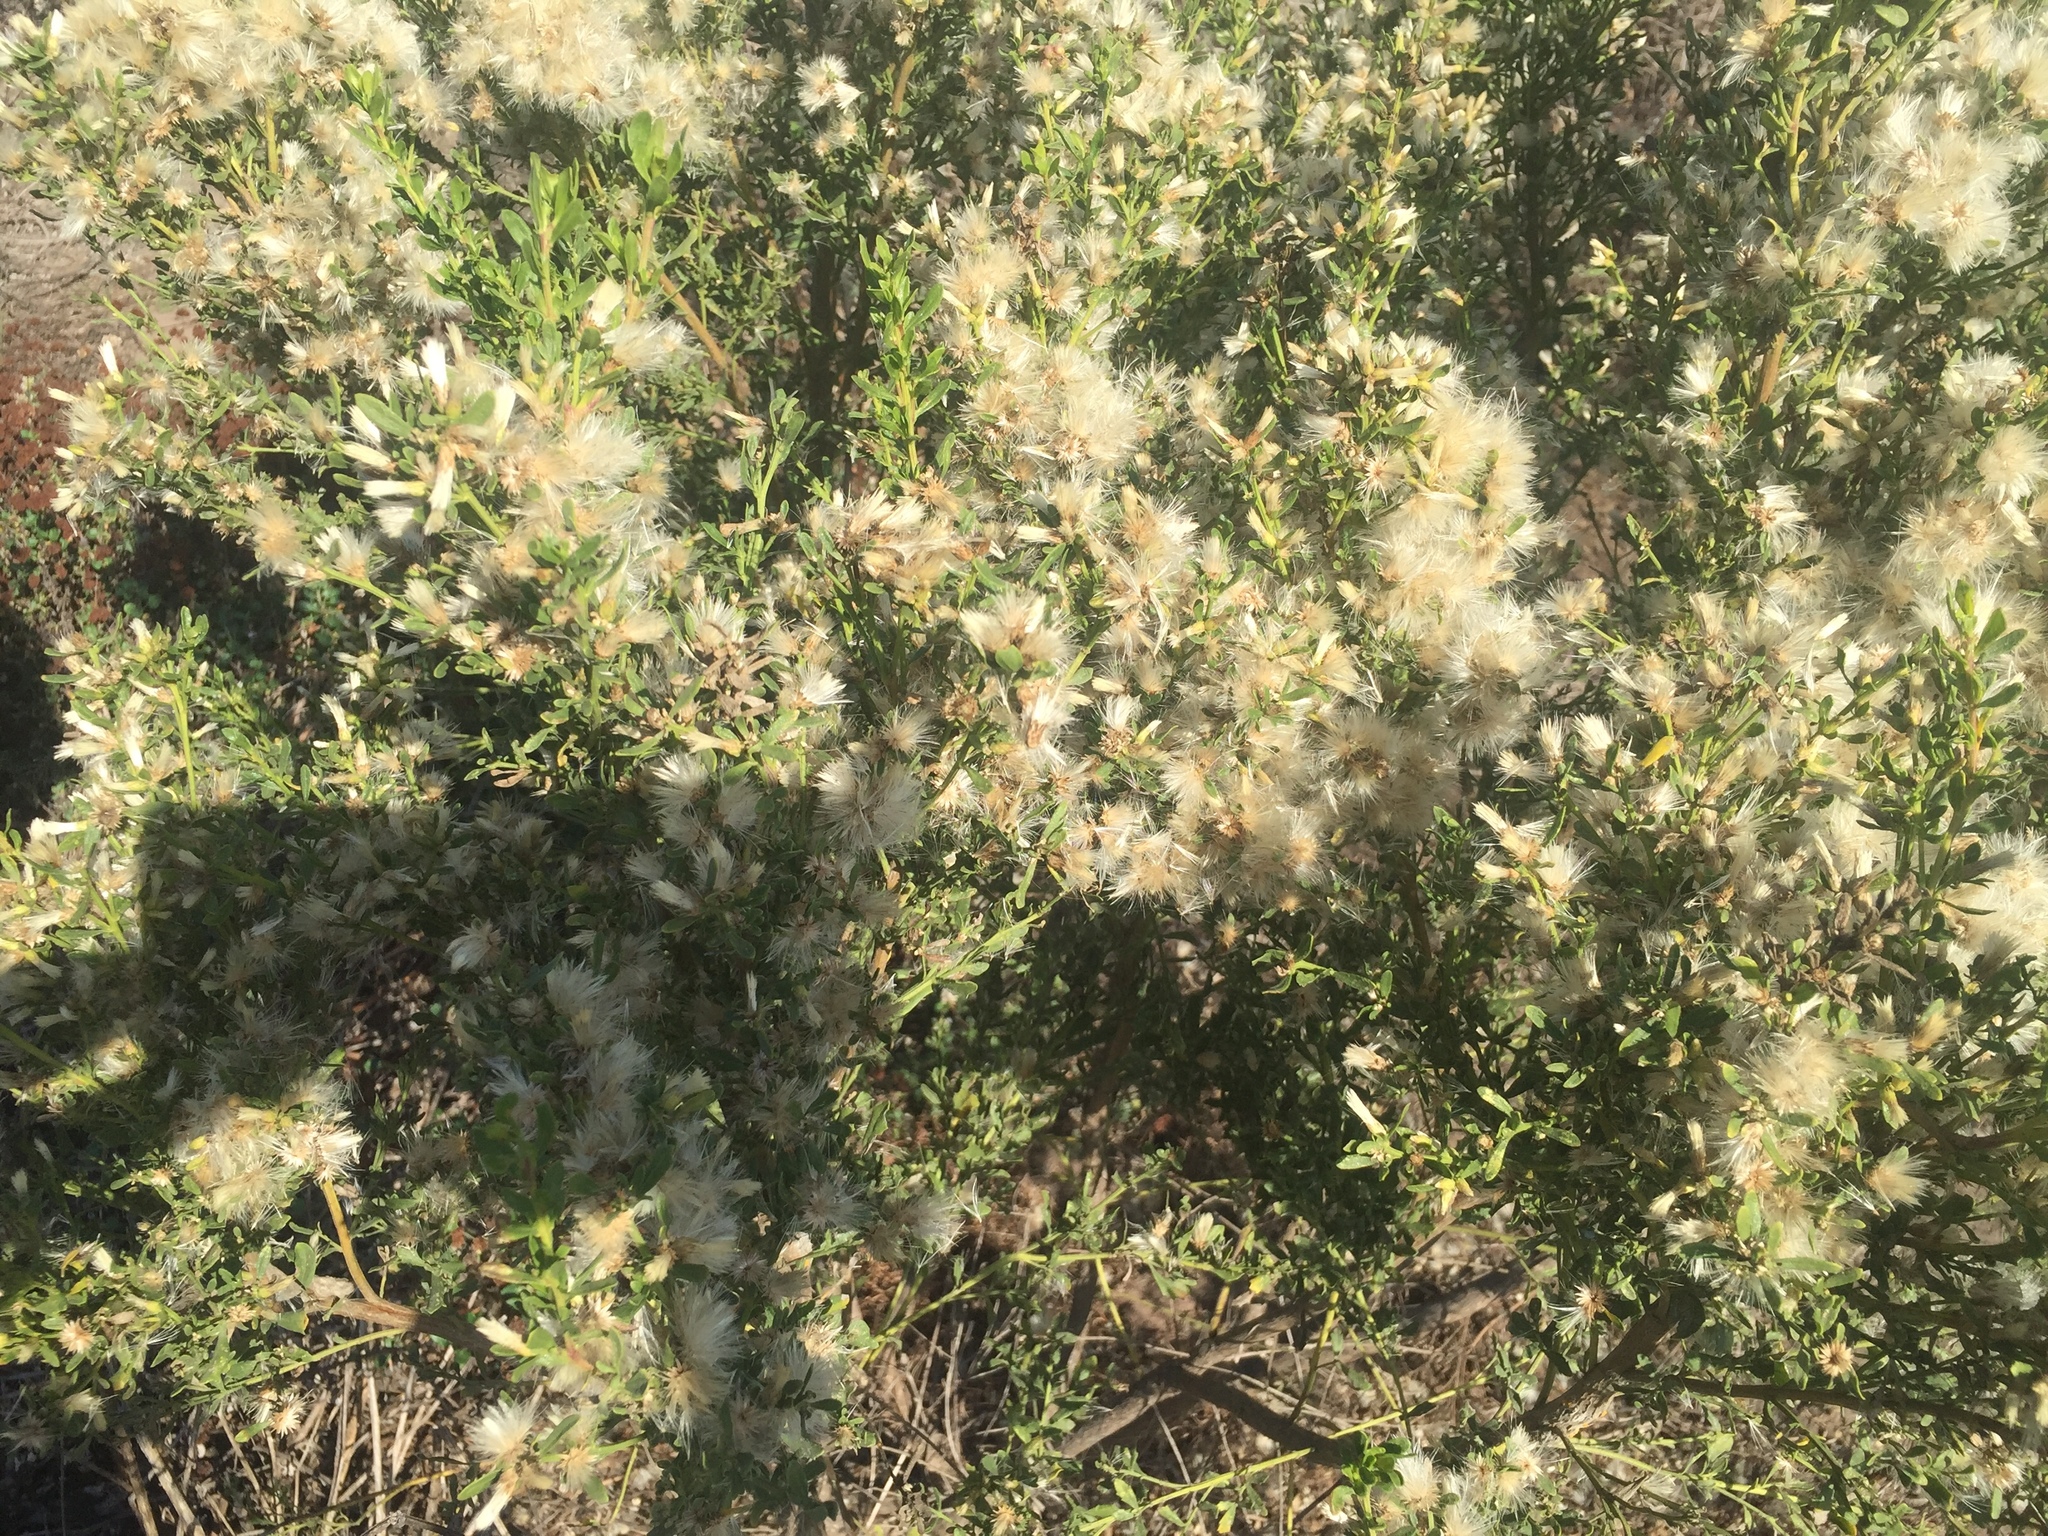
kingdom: Plantae
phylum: Tracheophyta
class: Magnoliopsida
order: Asterales
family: Asteraceae
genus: Baccharis
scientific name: Baccharis pilularis
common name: Coyotebrush
